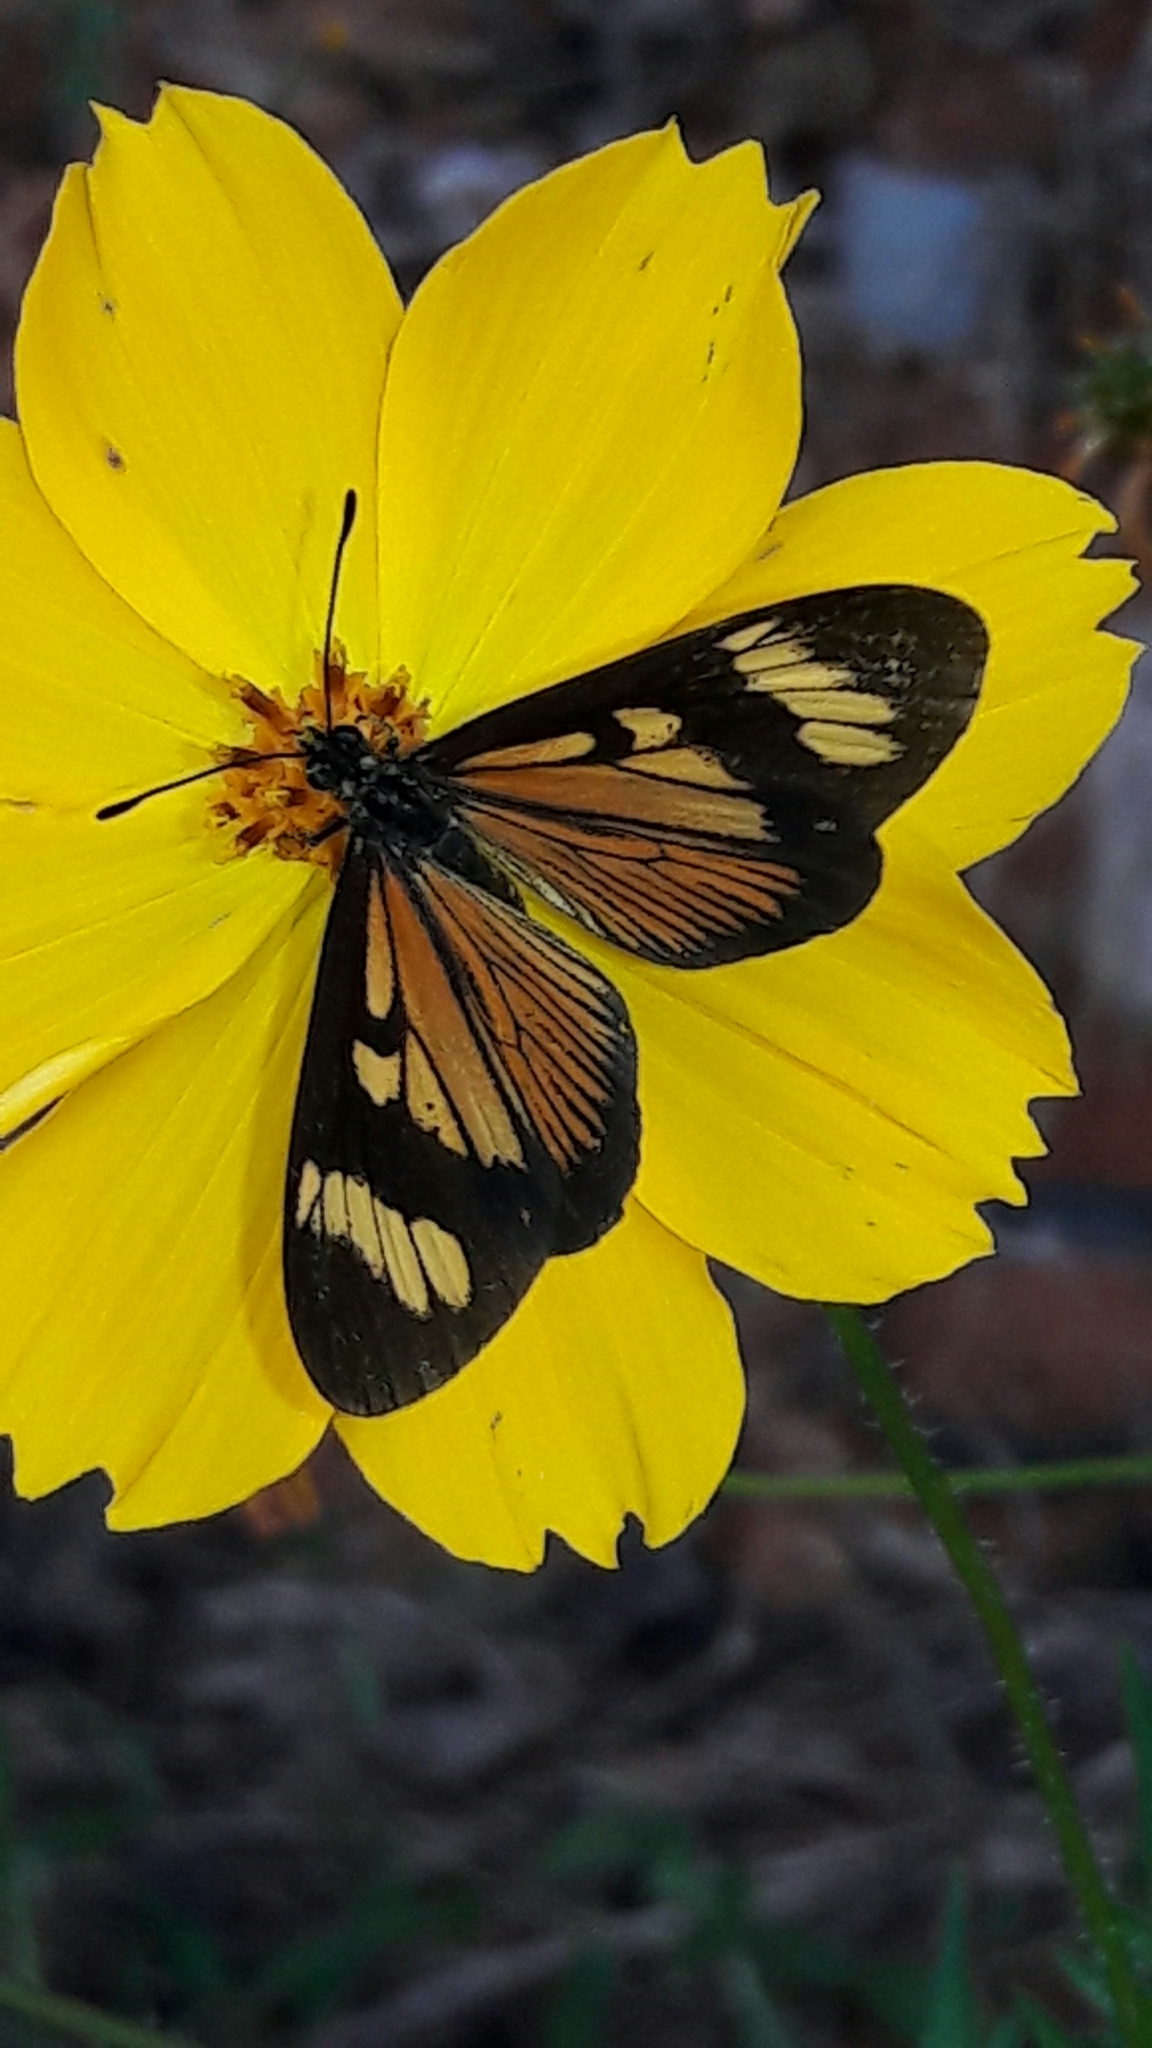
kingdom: Animalia
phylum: Arthropoda
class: Insecta
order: Lepidoptera
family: Nymphalidae
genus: Actinote
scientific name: Actinote pellenea
